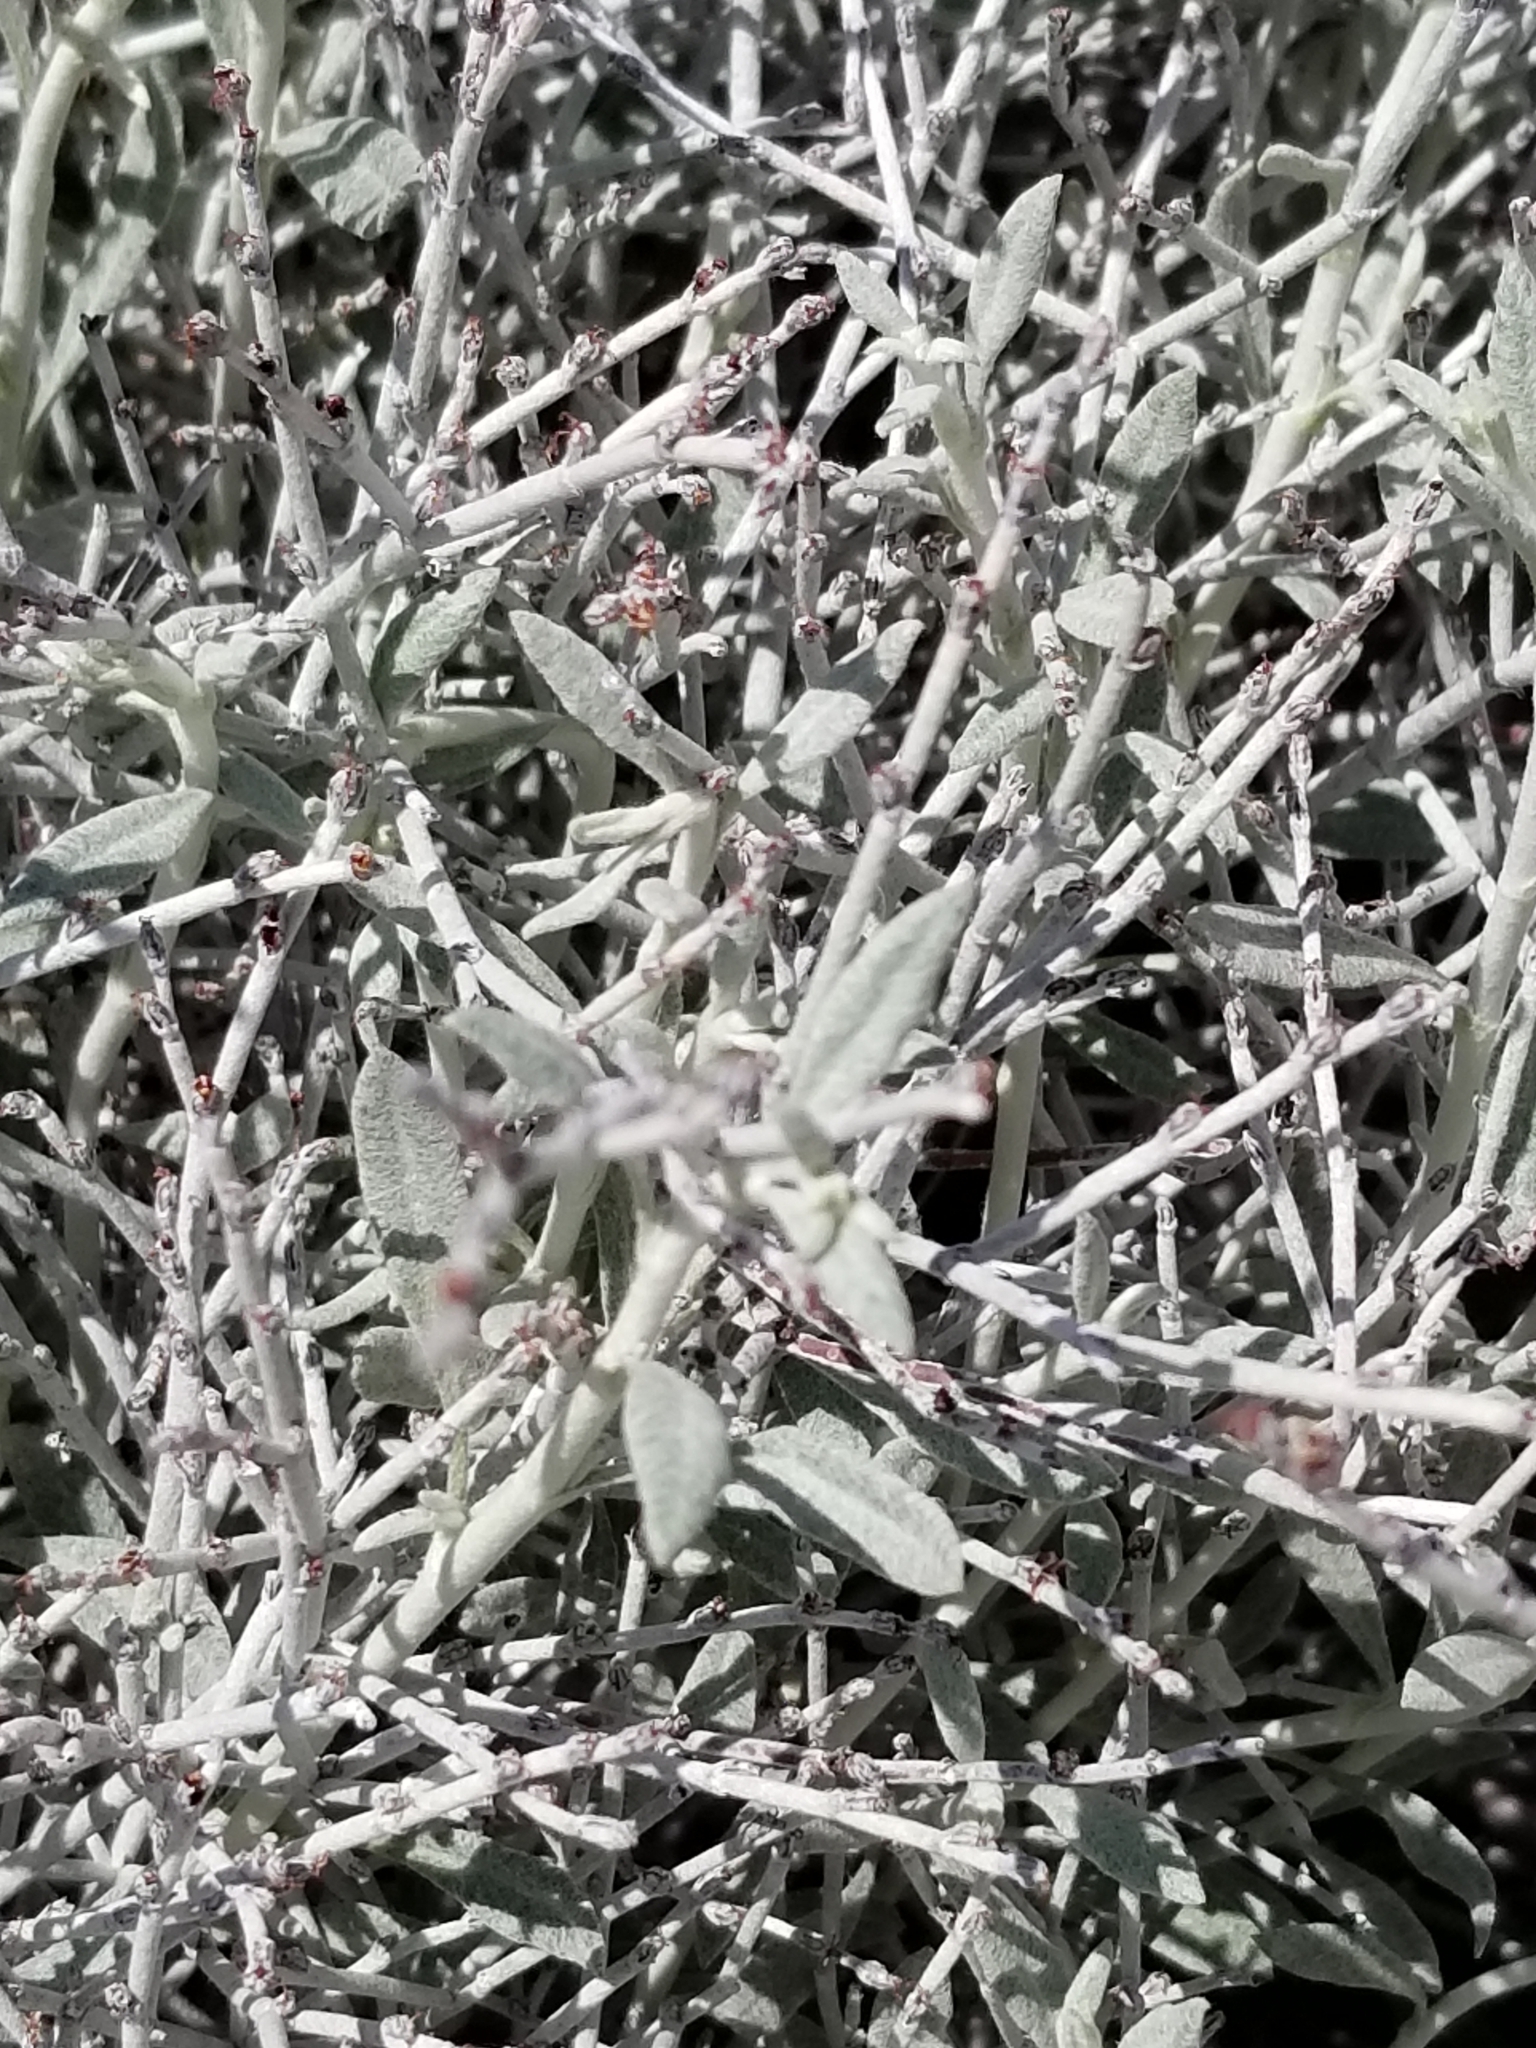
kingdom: Plantae
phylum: Tracheophyta
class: Magnoliopsida
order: Caryophyllales
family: Polygonaceae
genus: Eriogonum
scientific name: Eriogonum wrightii
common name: Bastard-sage
